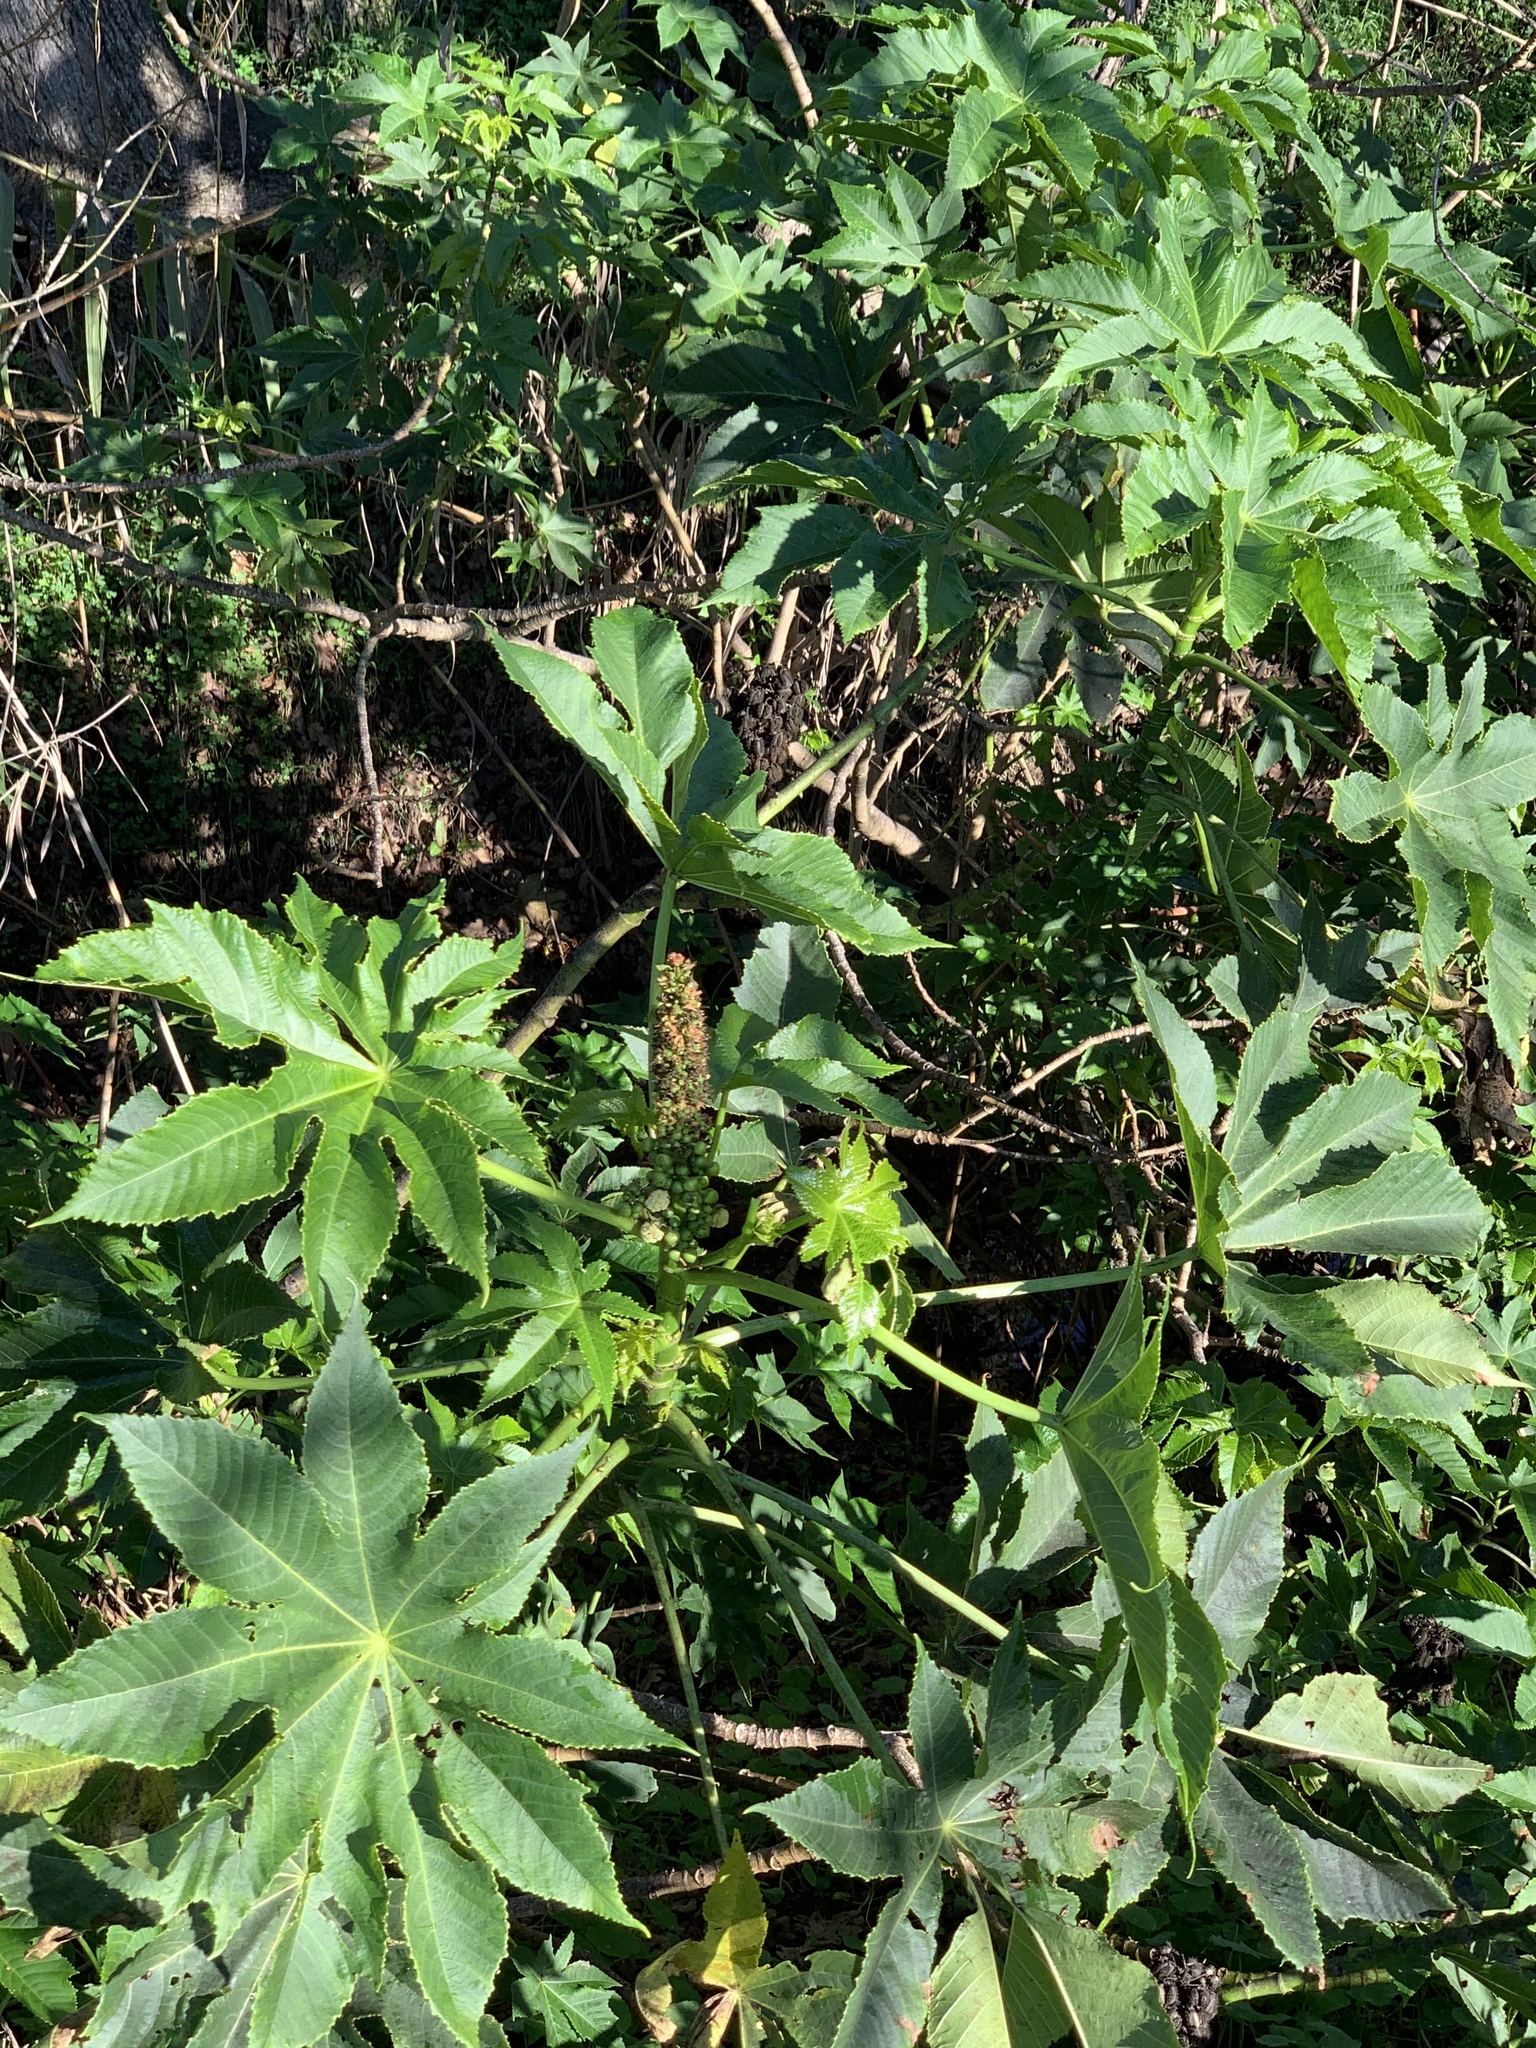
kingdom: Plantae
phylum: Tracheophyta
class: Magnoliopsida
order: Malpighiales
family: Euphorbiaceae
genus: Ricinus
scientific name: Ricinus communis
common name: Castor-oil-plant
